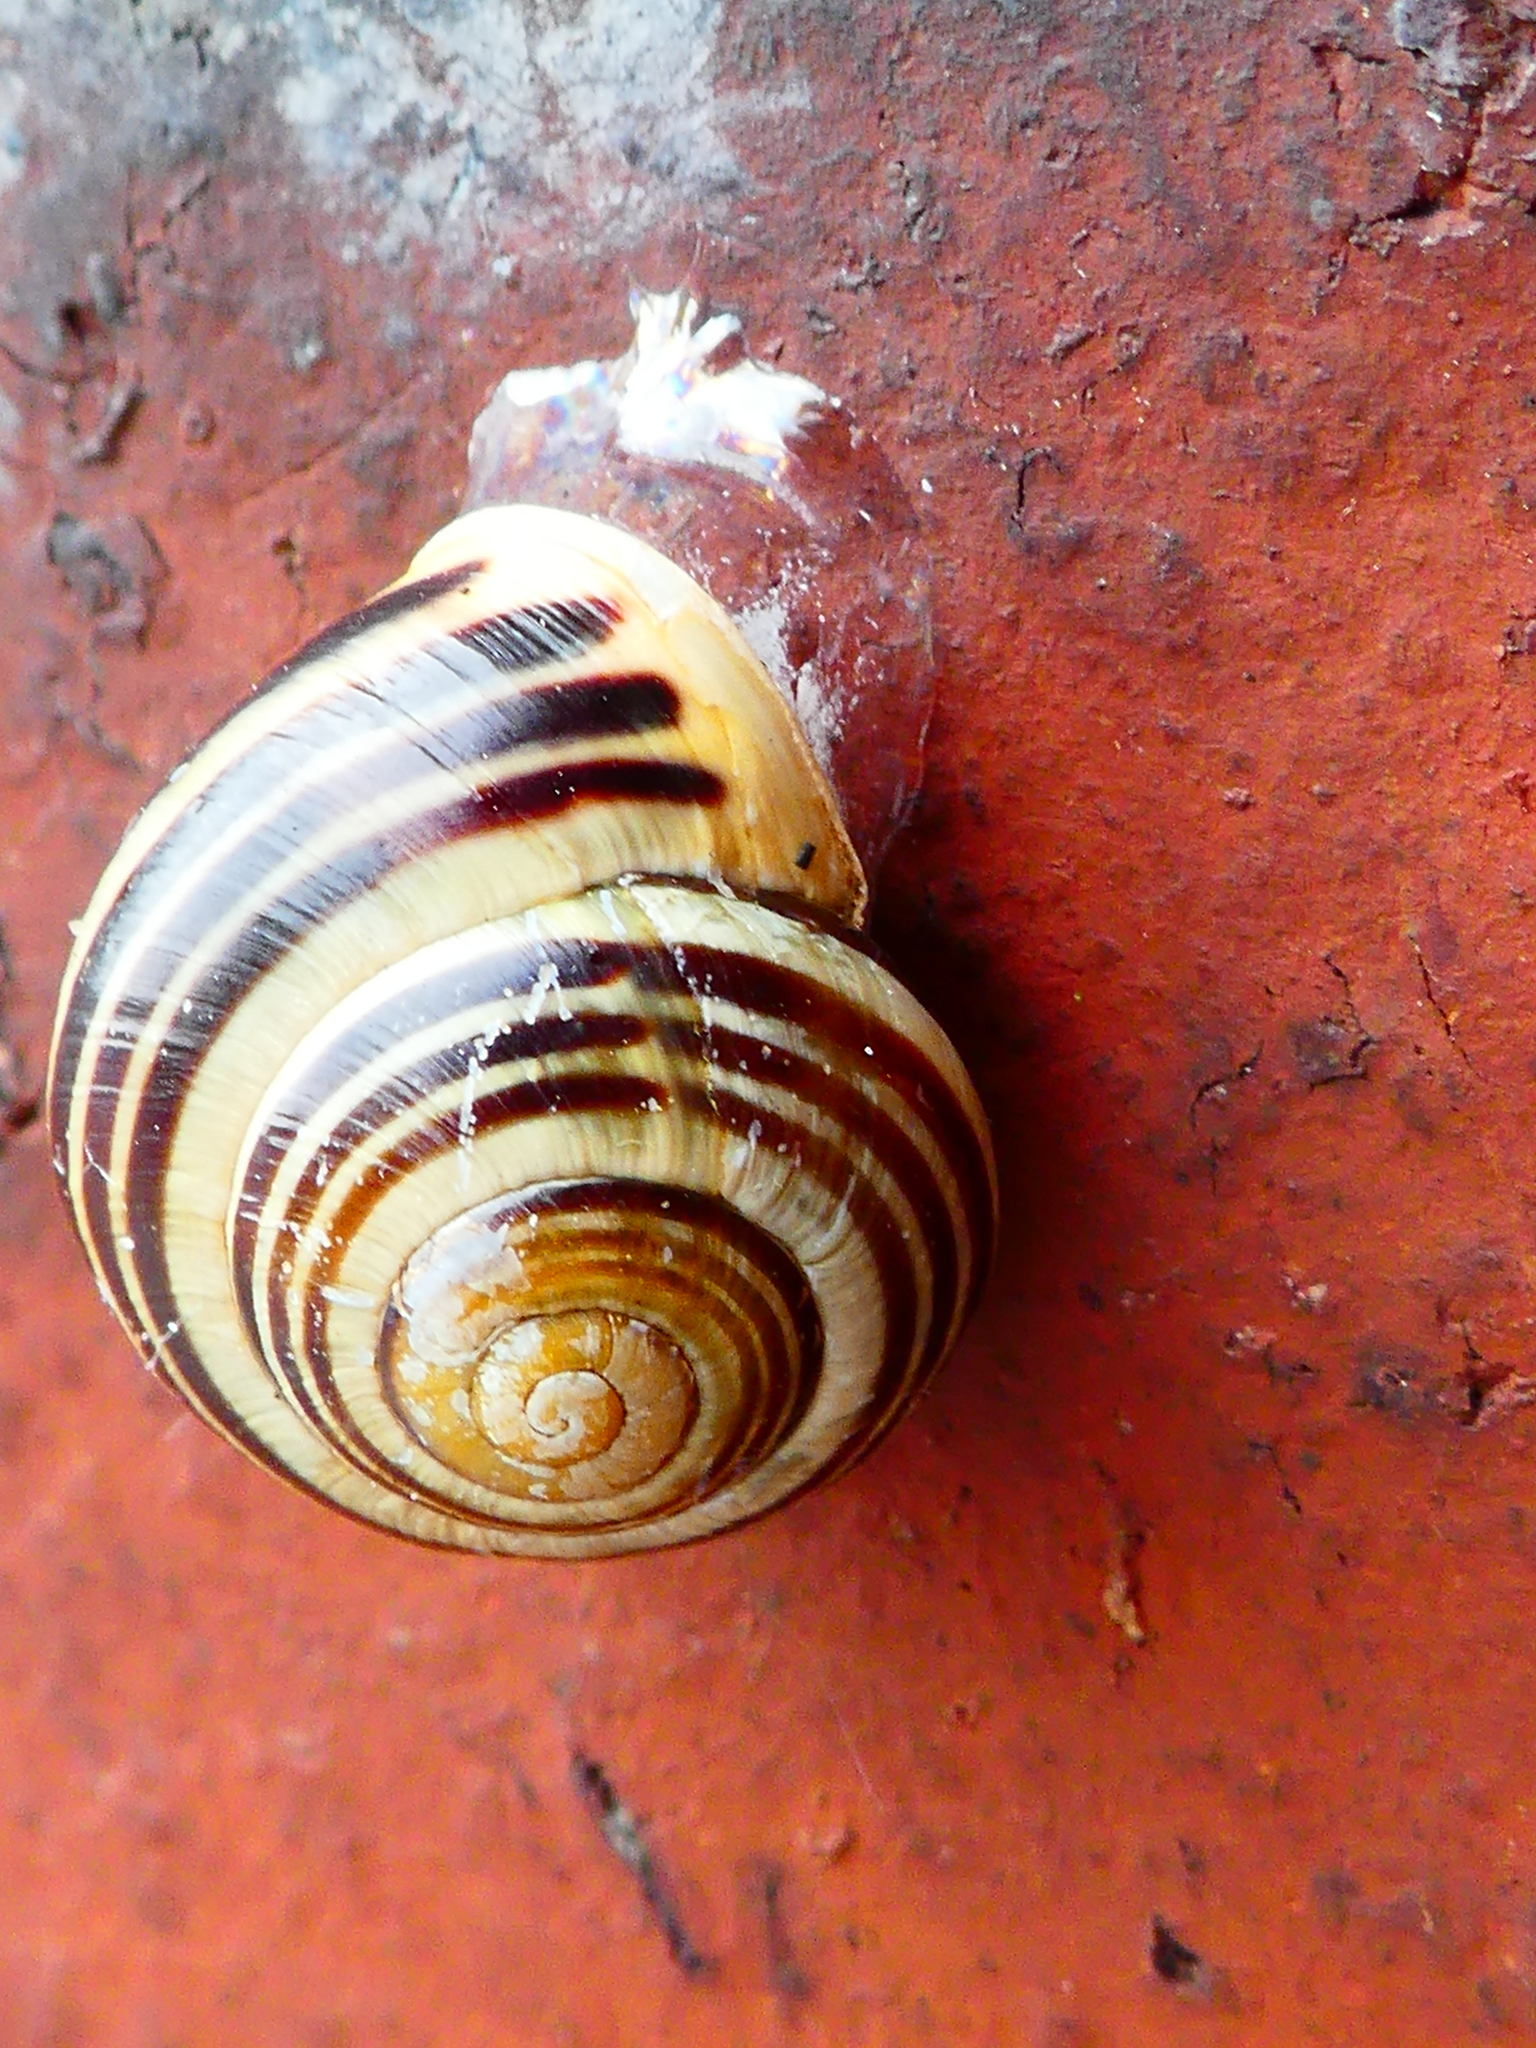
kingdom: Animalia
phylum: Mollusca
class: Gastropoda
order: Stylommatophora
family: Helicidae
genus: Cepaea
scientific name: Cepaea hortensis
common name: White-lip gardensnail
